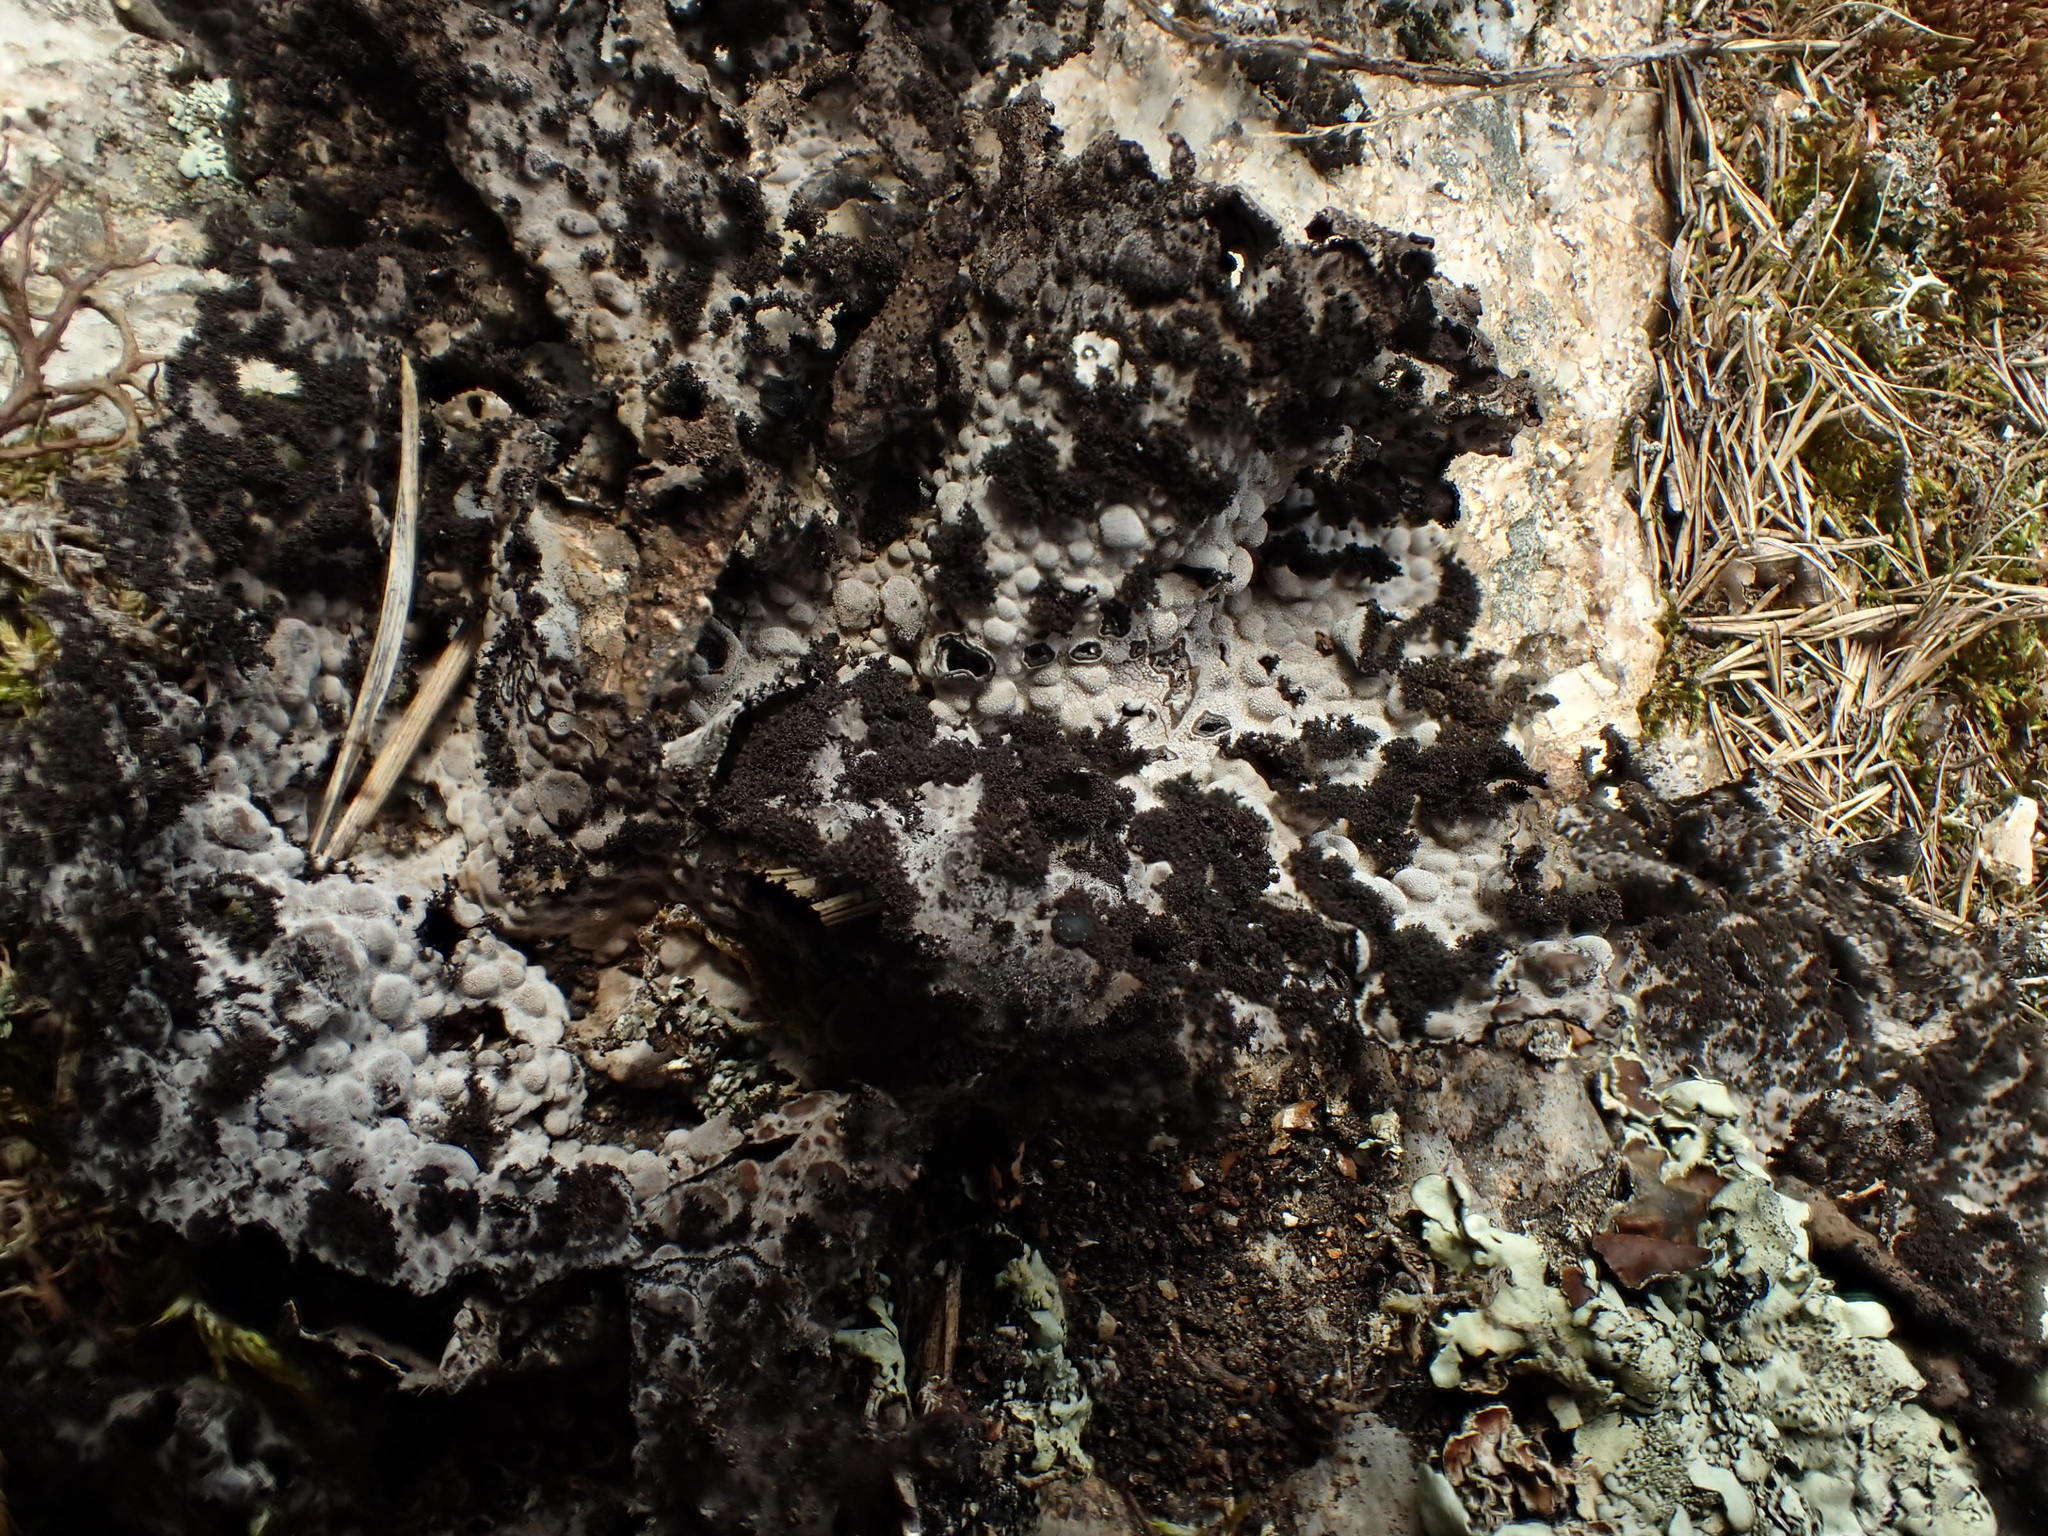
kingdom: Fungi
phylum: Ascomycota
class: Lecanoromycetes
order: Umbilicariales
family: Umbilicariaceae
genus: Lasallia
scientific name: Lasallia pustulata
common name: Blistered toadskin lichen
